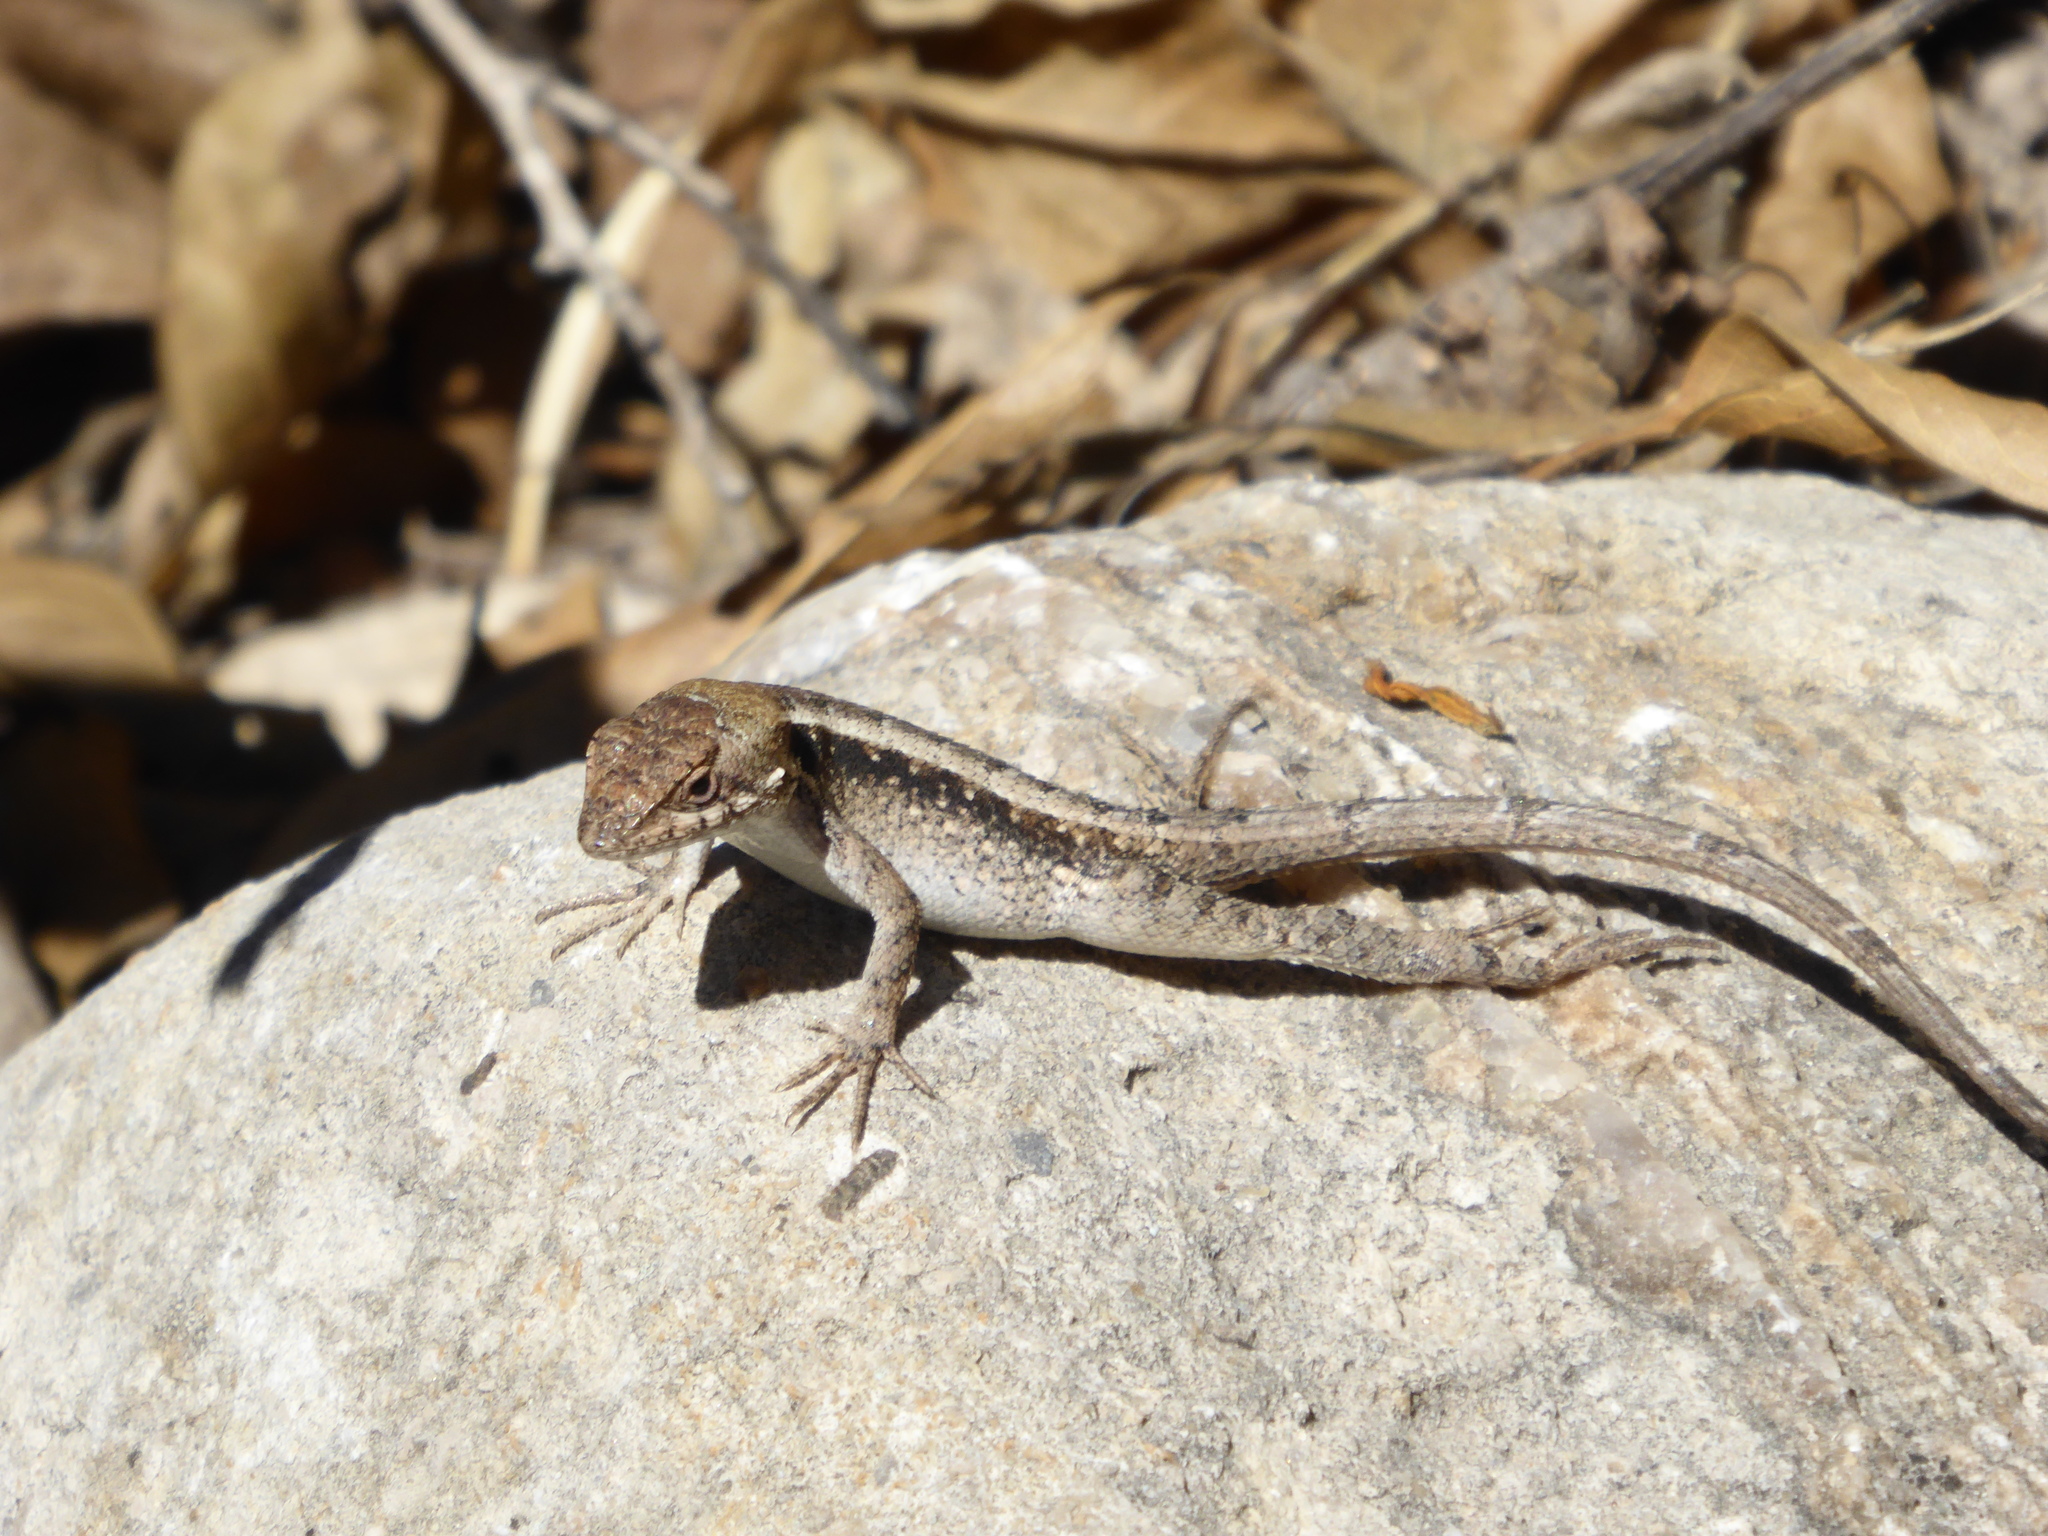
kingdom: Animalia
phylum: Chordata
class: Squamata
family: Phrynosomatidae
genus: Sceloporus
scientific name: Sceloporus siniferus
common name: Longtail spiny lizard
